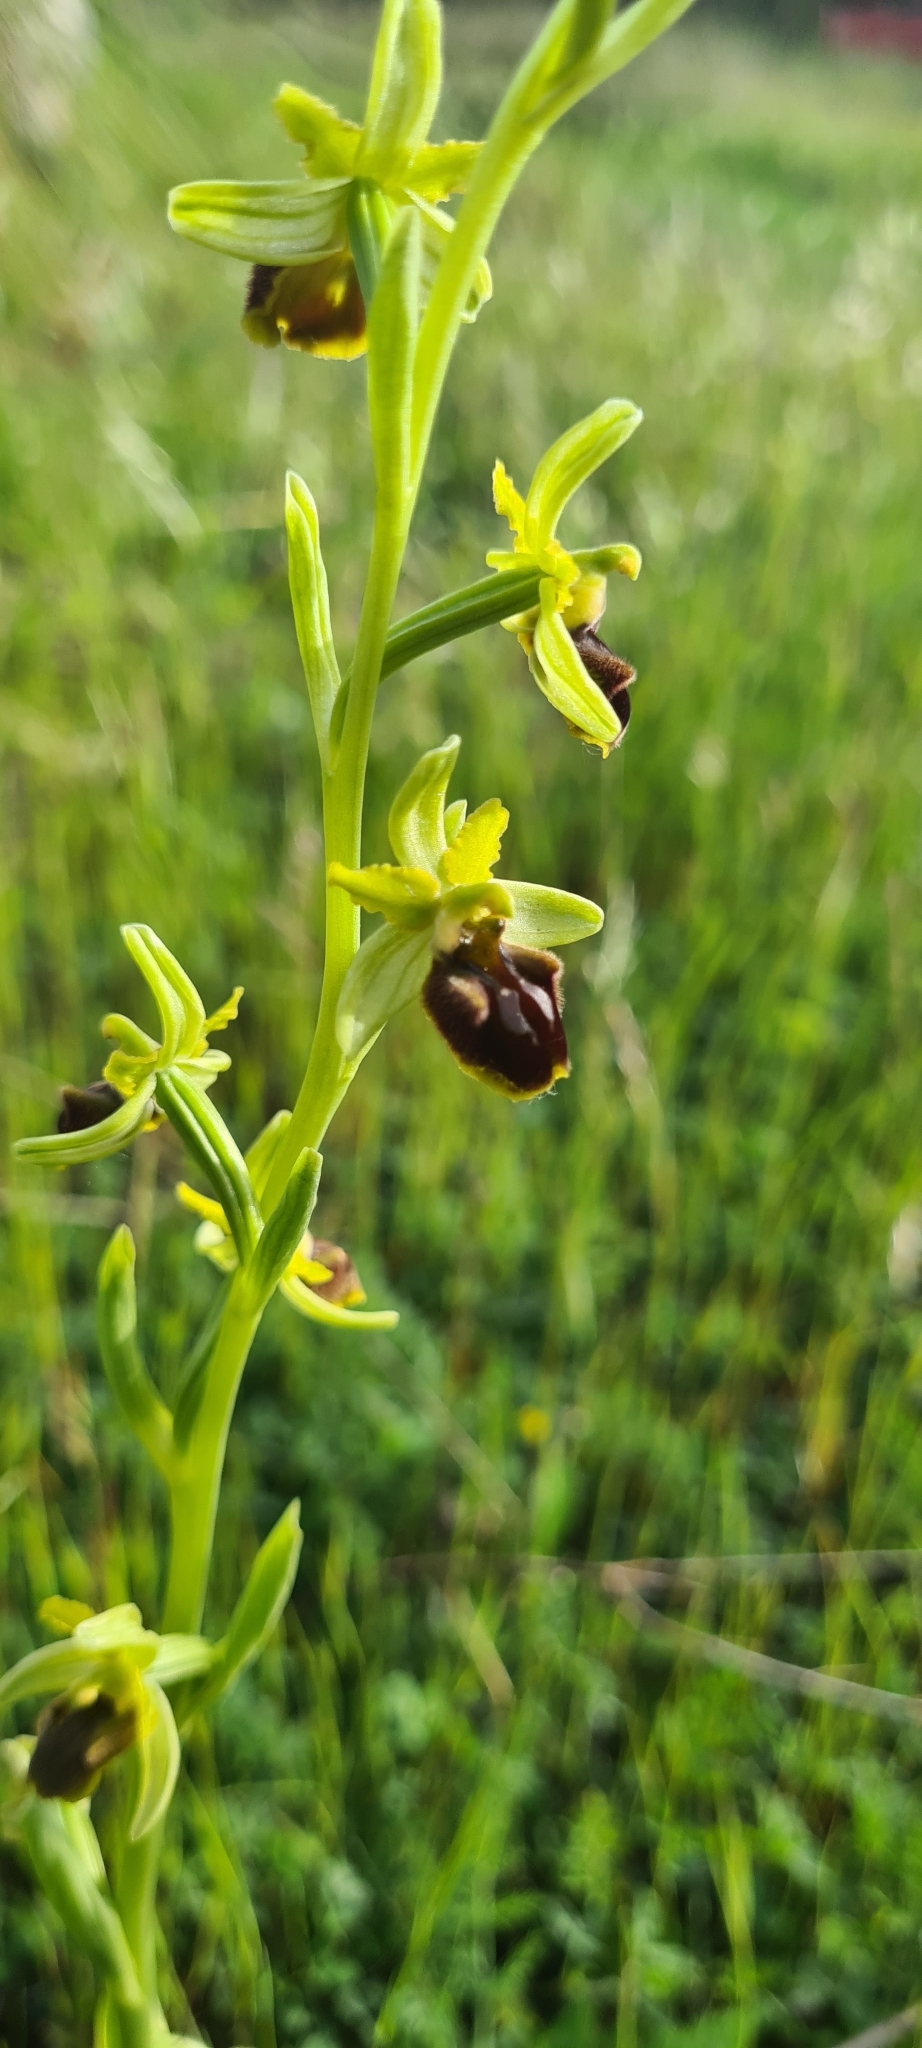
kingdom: Plantae
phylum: Tracheophyta
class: Liliopsida
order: Asparagales
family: Orchidaceae
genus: Ophrys
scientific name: Ophrys sphegodes
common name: Early spider-orchid
